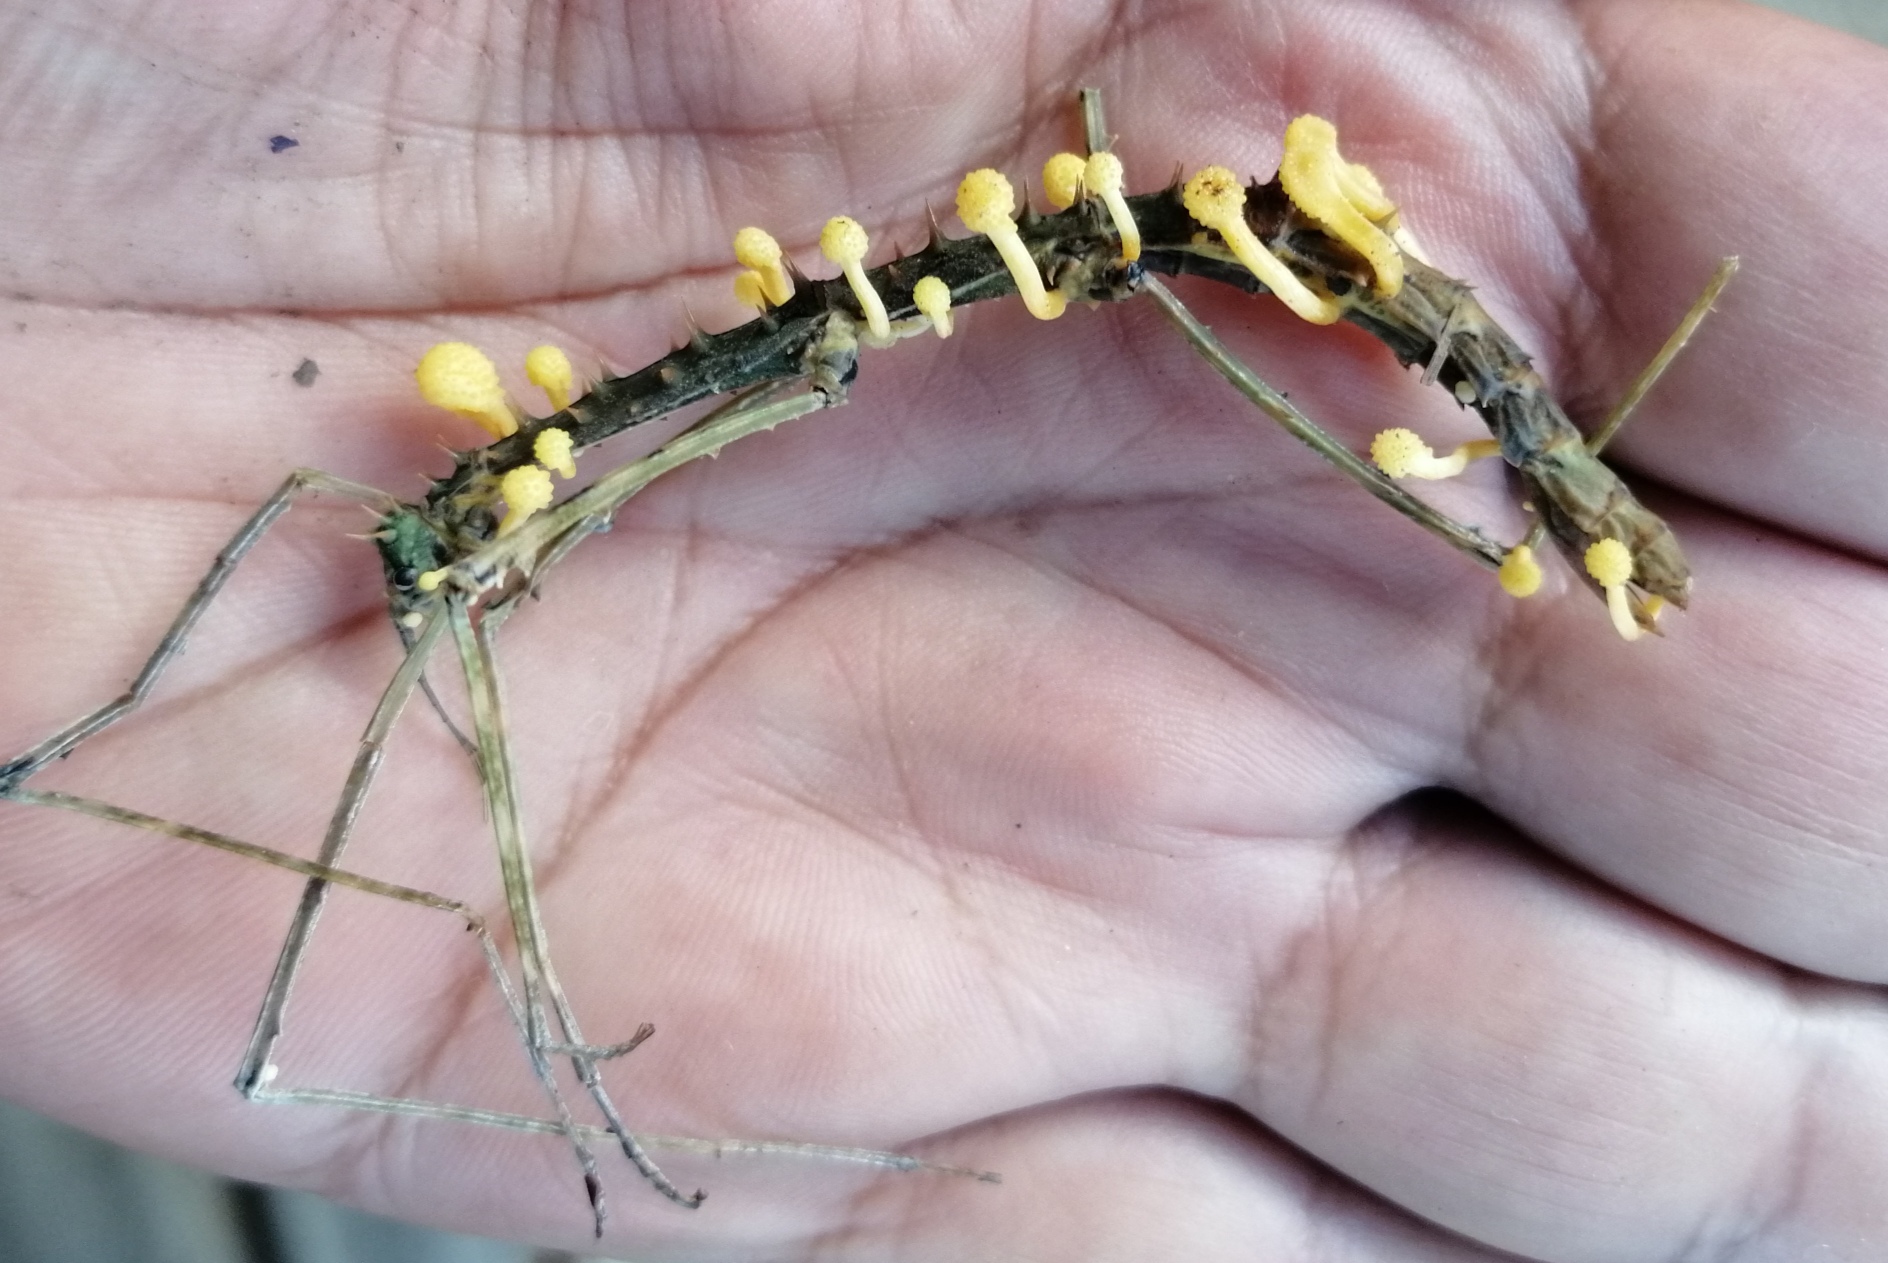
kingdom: Fungi
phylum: Ascomycota
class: Sordariomycetes
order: Hypocreales
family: Cordycipitaceae
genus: Beauveria
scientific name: Beauveria diapheromeriphila
